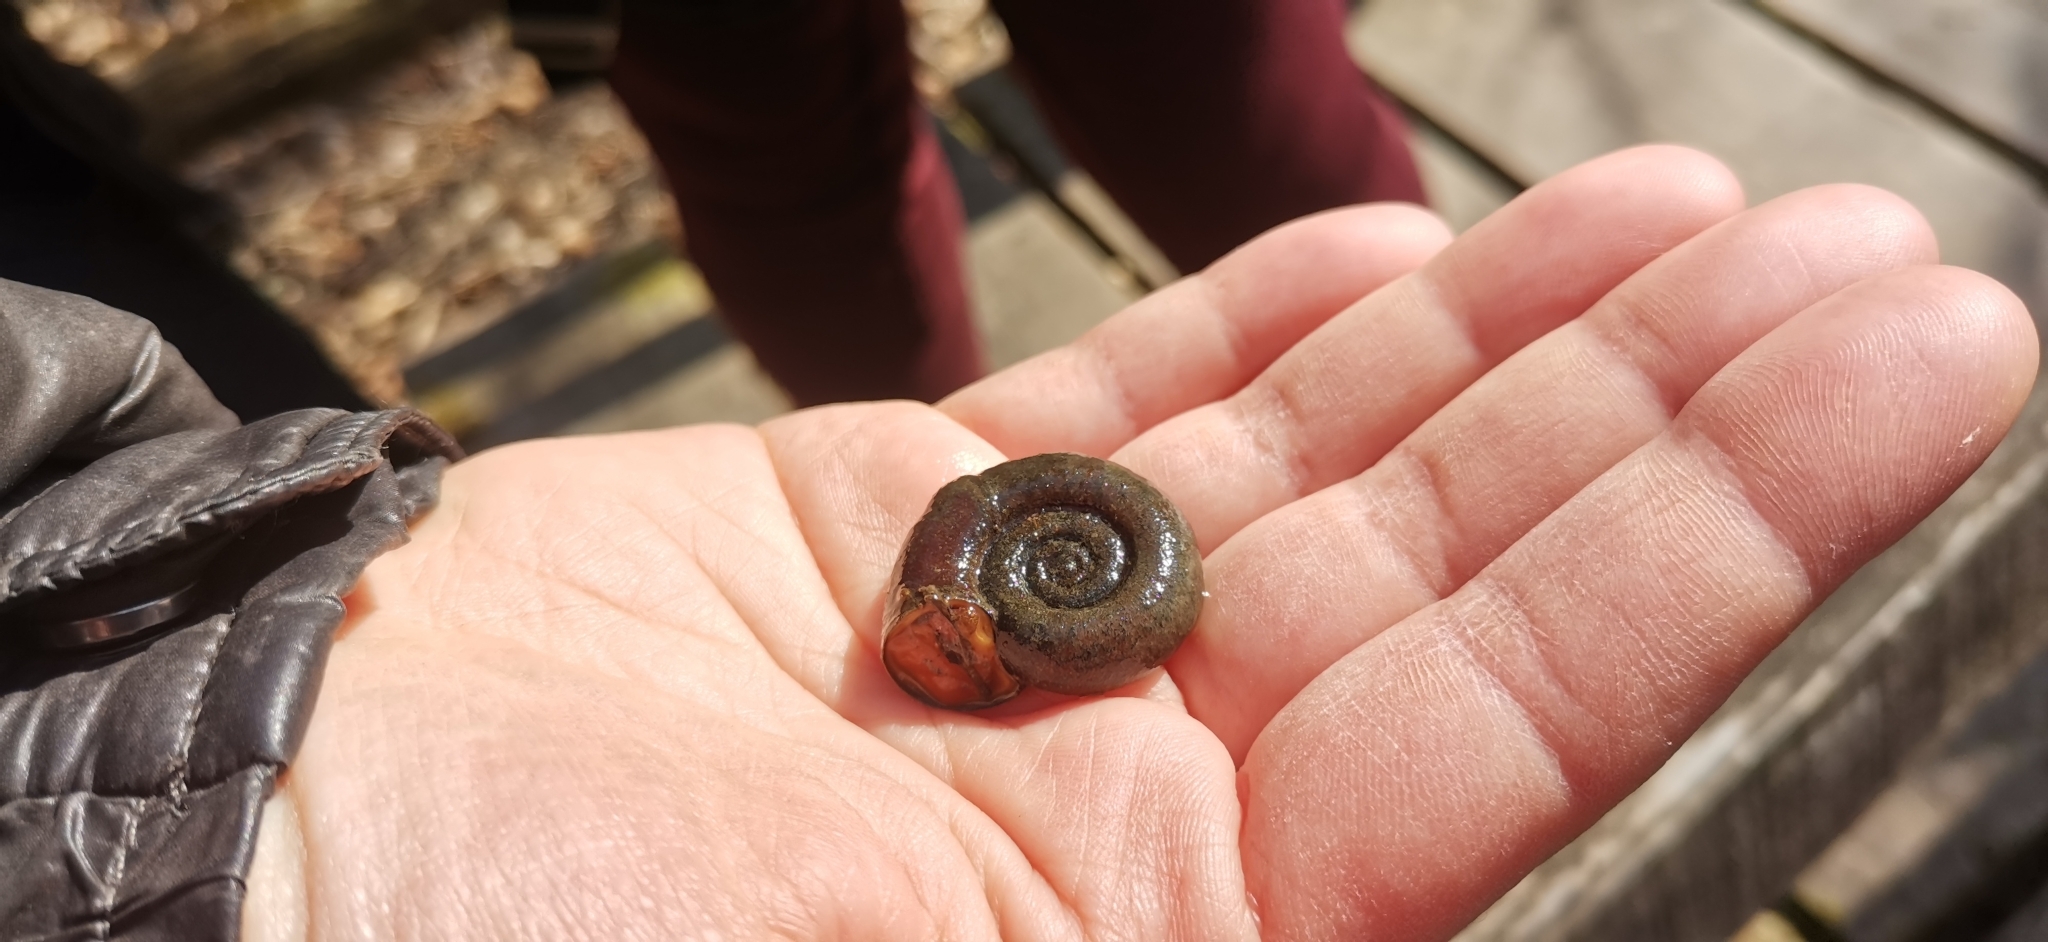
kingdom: Animalia
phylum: Mollusca
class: Gastropoda
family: Planorbidae
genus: Planorbarius
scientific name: Planorbarius corneus
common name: Great ramshorn
